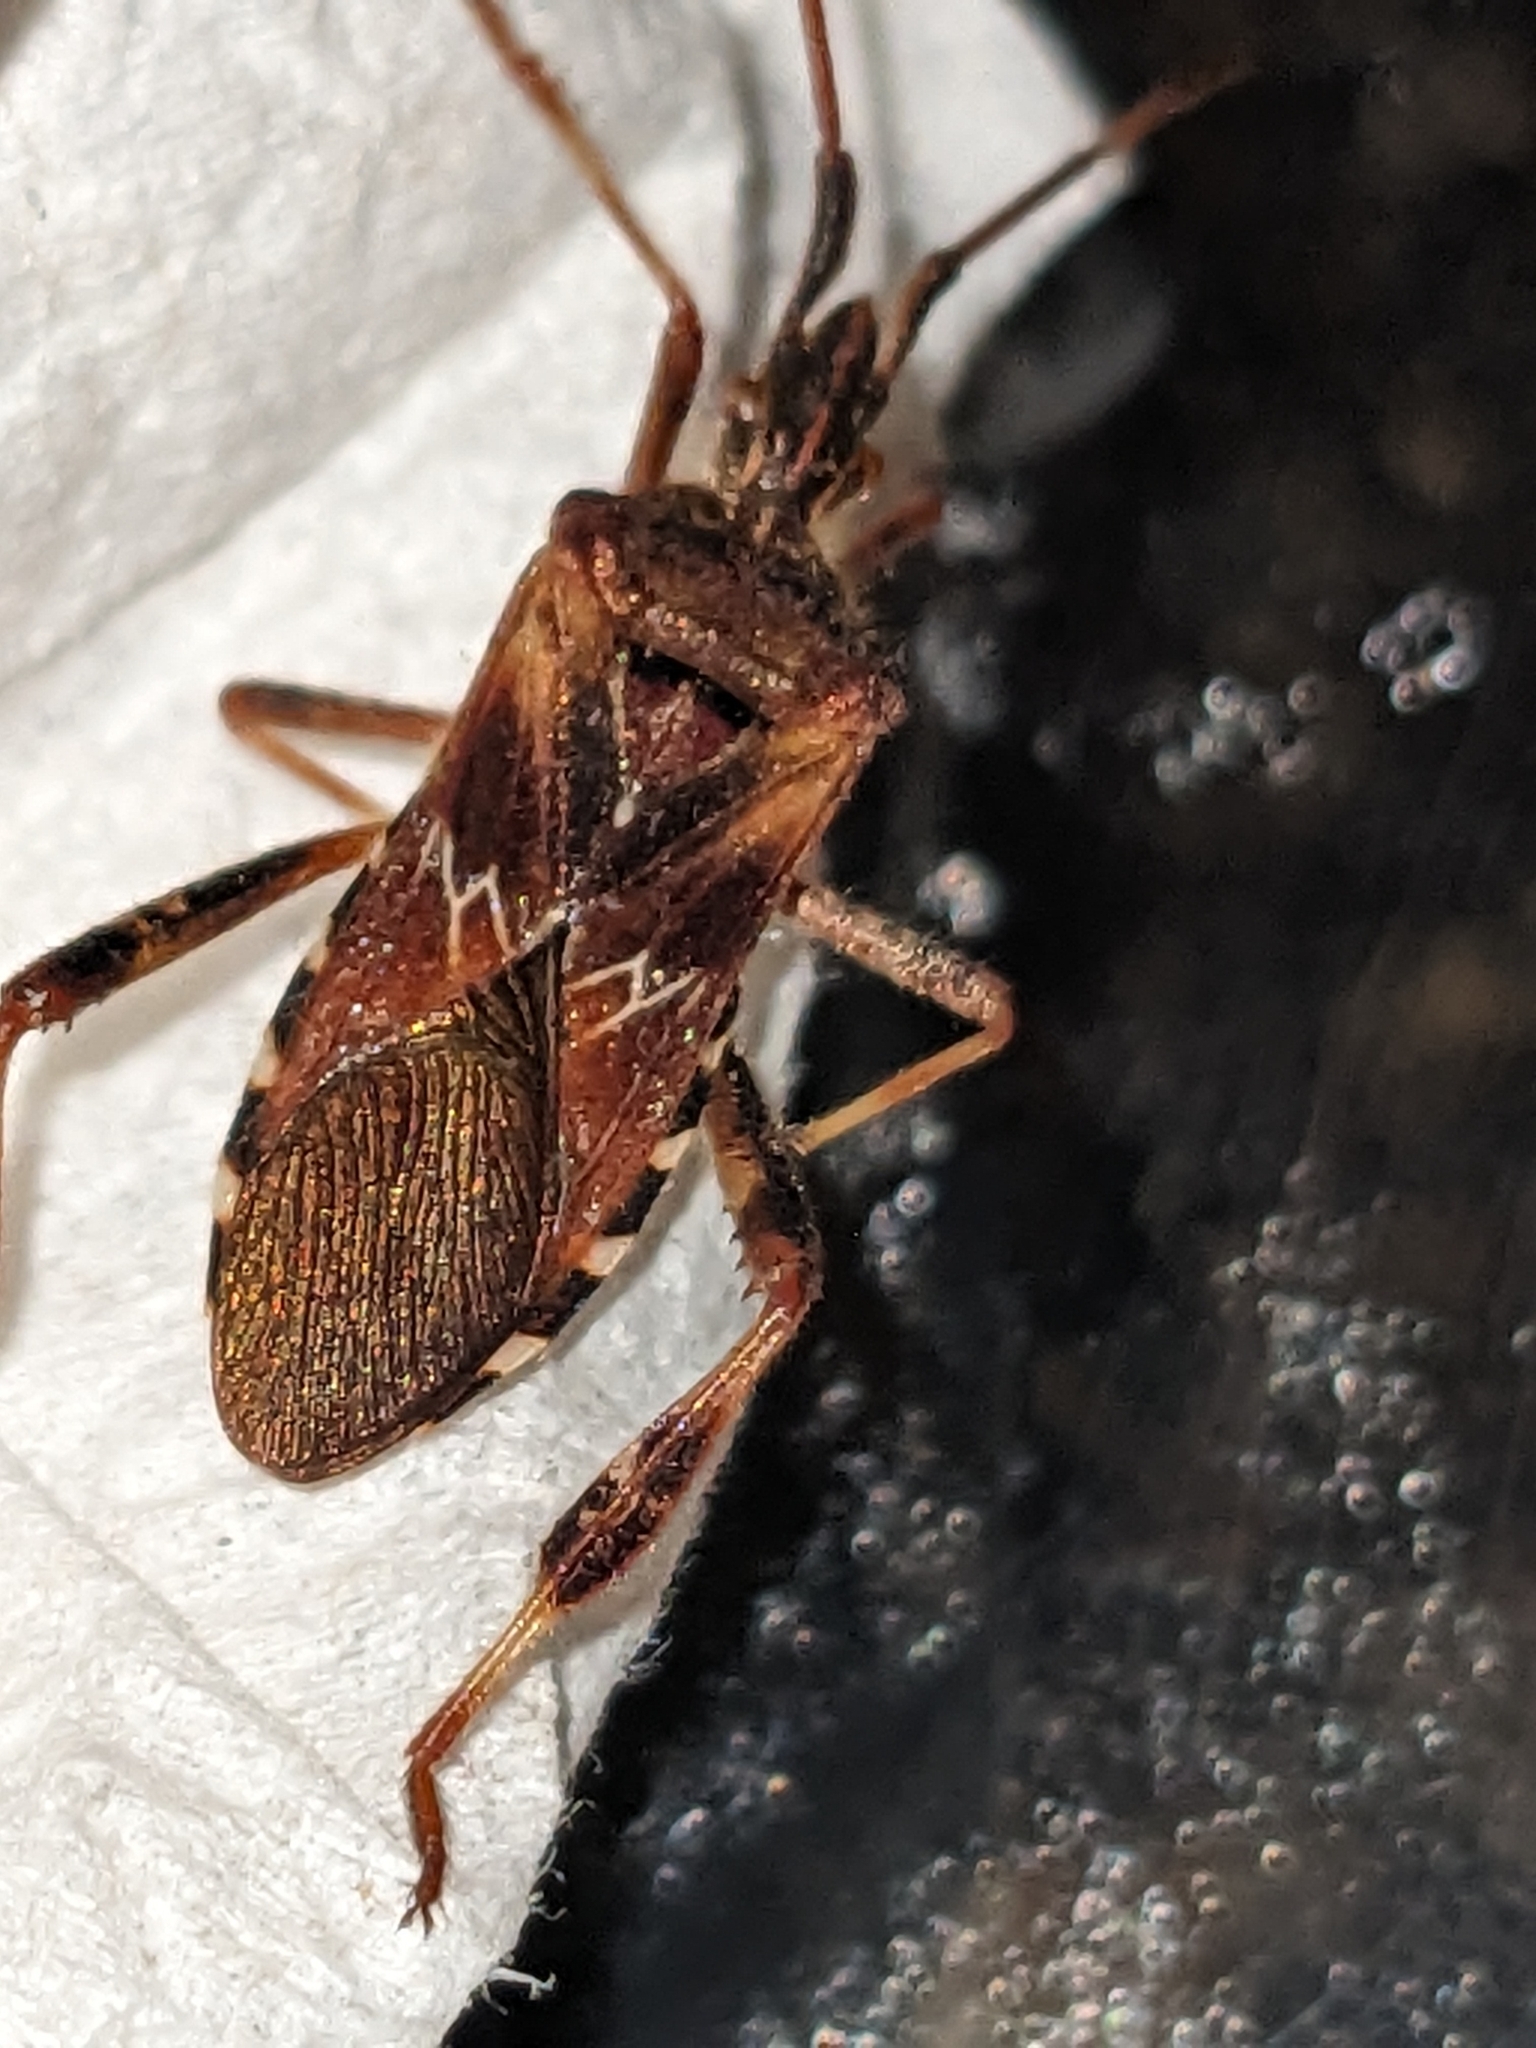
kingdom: Animalia
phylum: Arthropoda
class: Insecta
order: Hemiptera
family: Coreidae
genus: Leptoglossus
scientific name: Leptoglossus occidentalis
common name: Western conifer-seed bug
